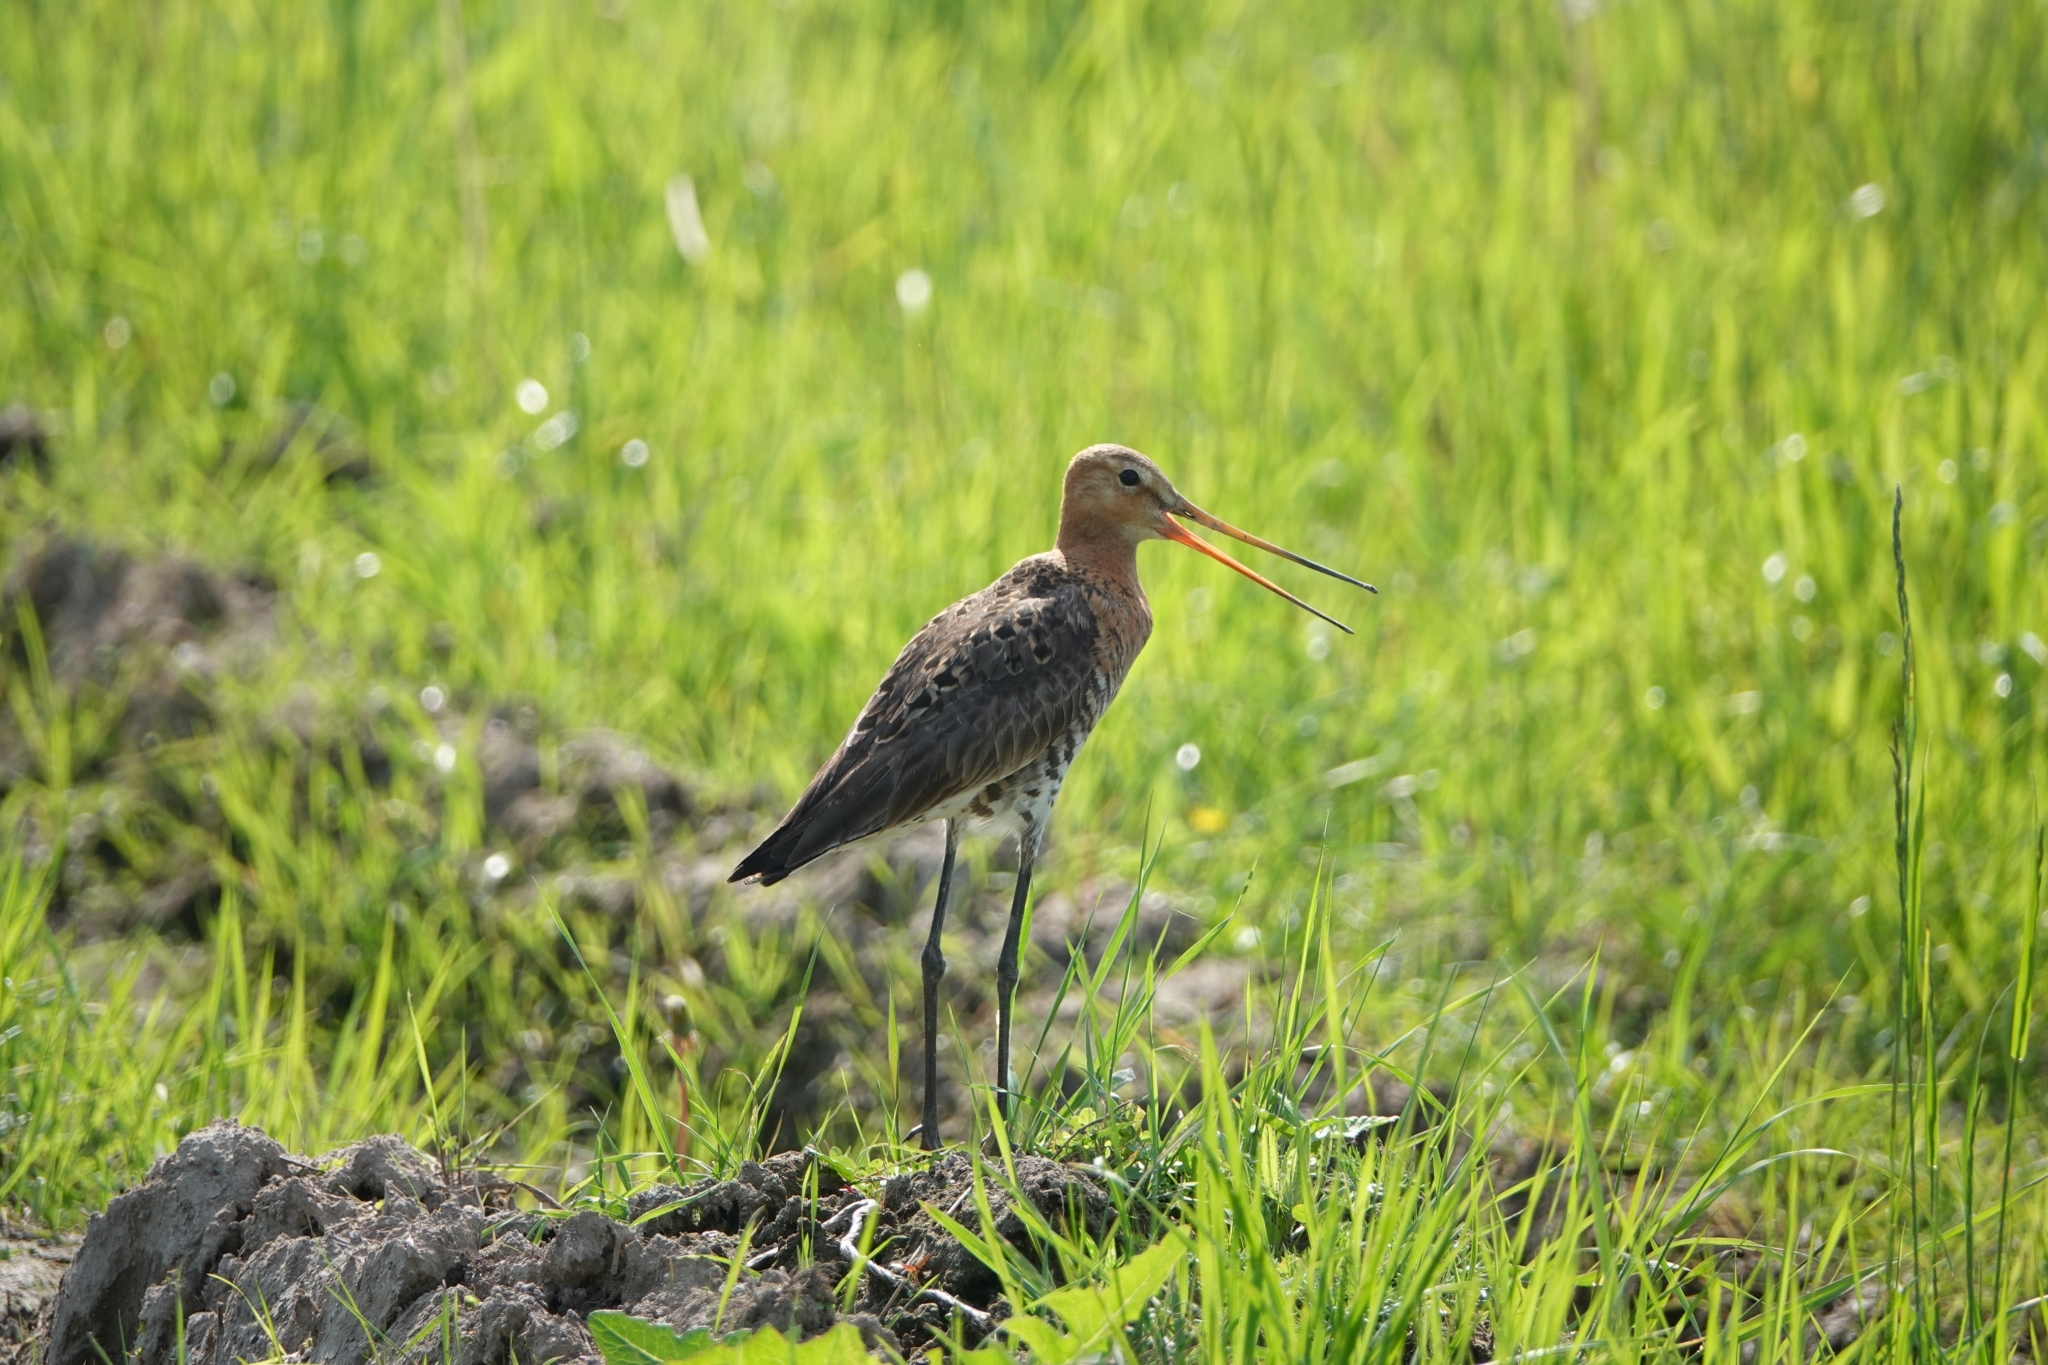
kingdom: Animalia
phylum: Chordata
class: Aves
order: Charadriiformes
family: Scolopacidae
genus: Limosa
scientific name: Limosa limosa
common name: Black-tailed godwit
